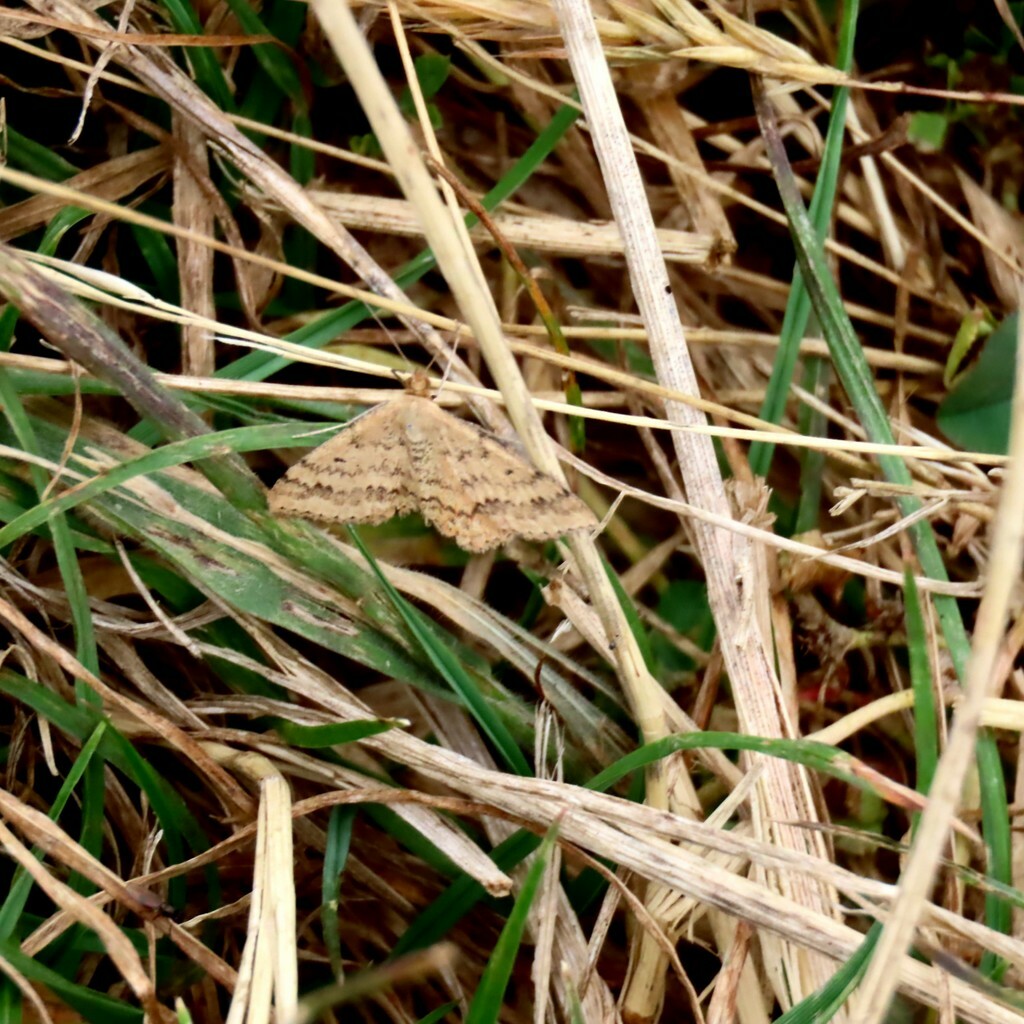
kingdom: Animalia
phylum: Arthropoda
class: Insecta
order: Lepidoptera
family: Geometridae
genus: Scopula
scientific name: Scopula rubraria
